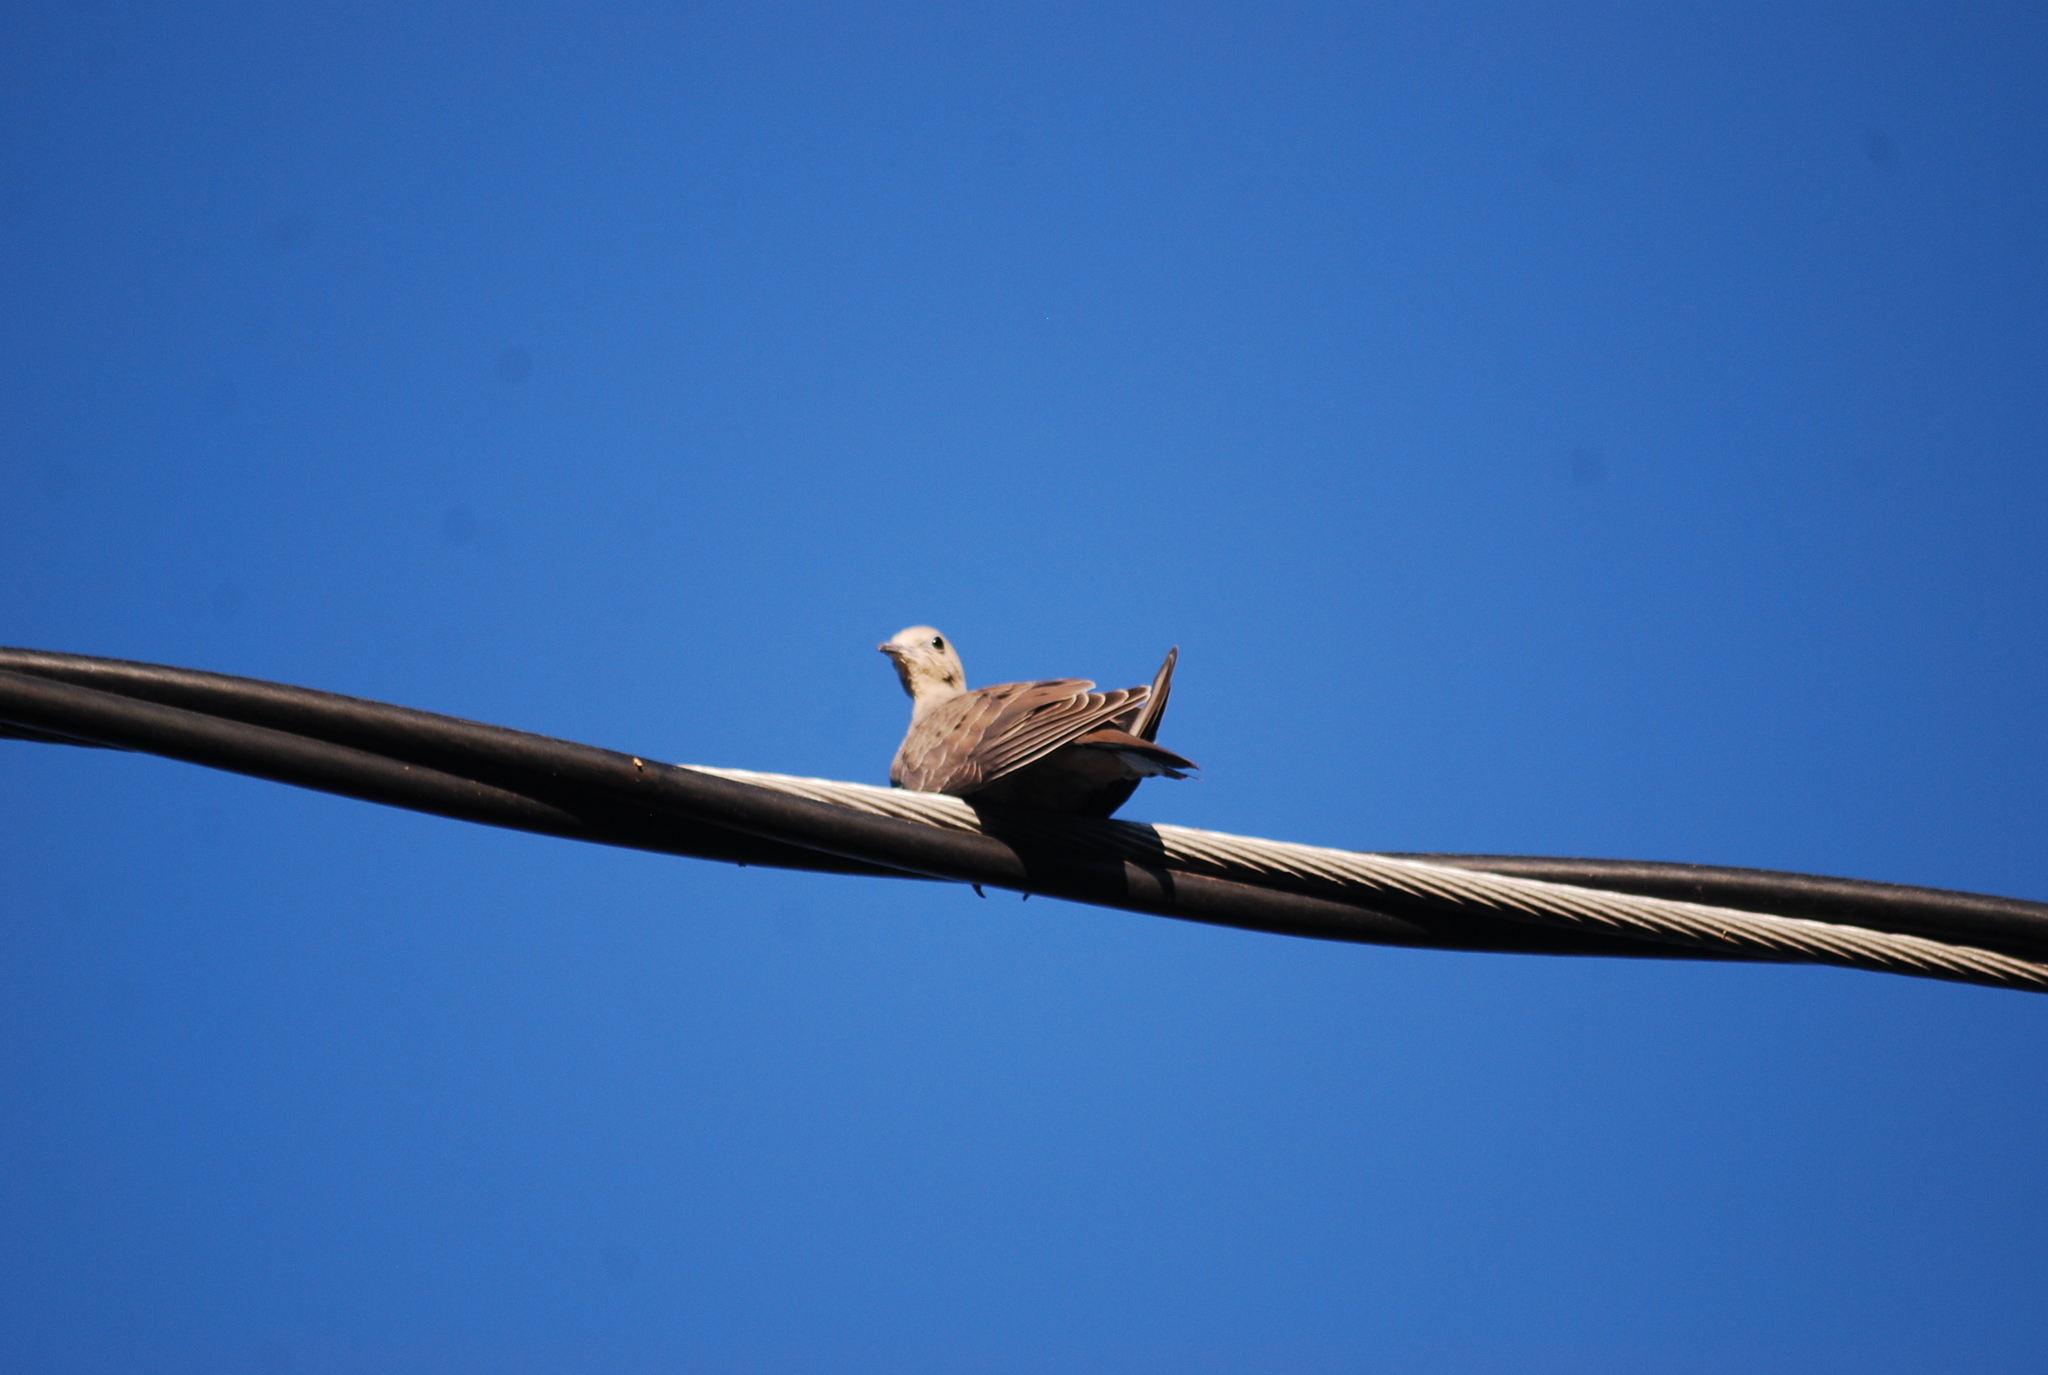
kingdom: Animalia
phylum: Chordata
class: Aves
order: Columbiformes
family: Columbidae
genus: Zenaida
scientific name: Zenaida macroura
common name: Mourning dove
